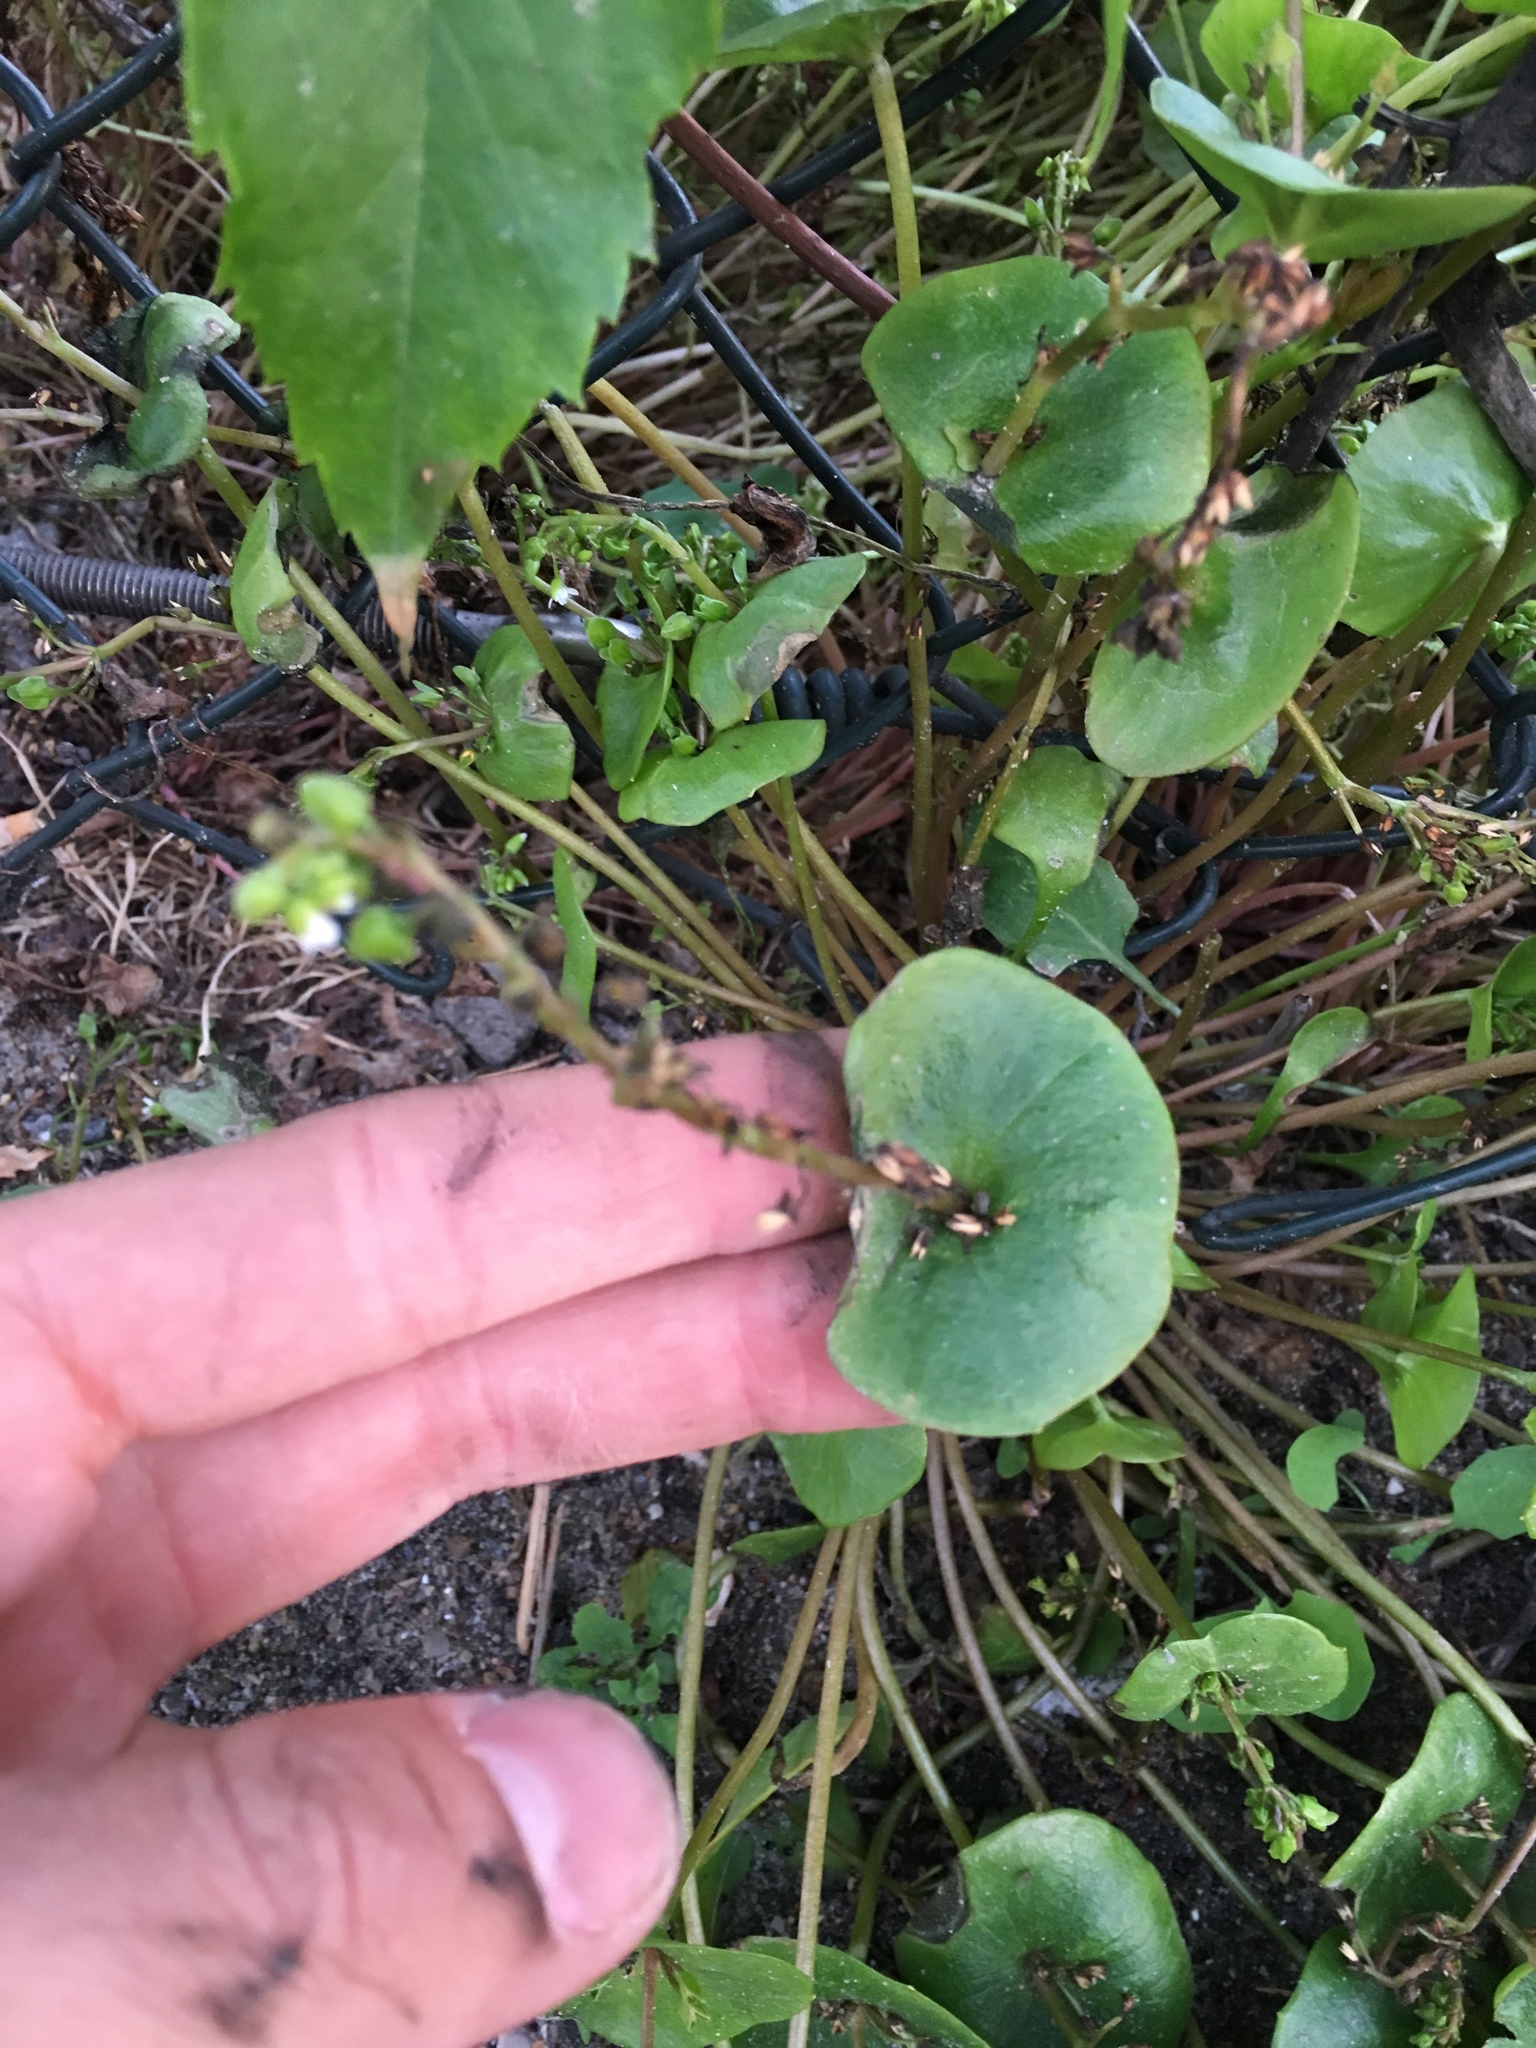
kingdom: Plantae
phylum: Tracheophyta
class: Magnoliopsida
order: Caryophyllales
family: Montiaceae
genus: Claytonia
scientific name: Claytonia perfoliata
